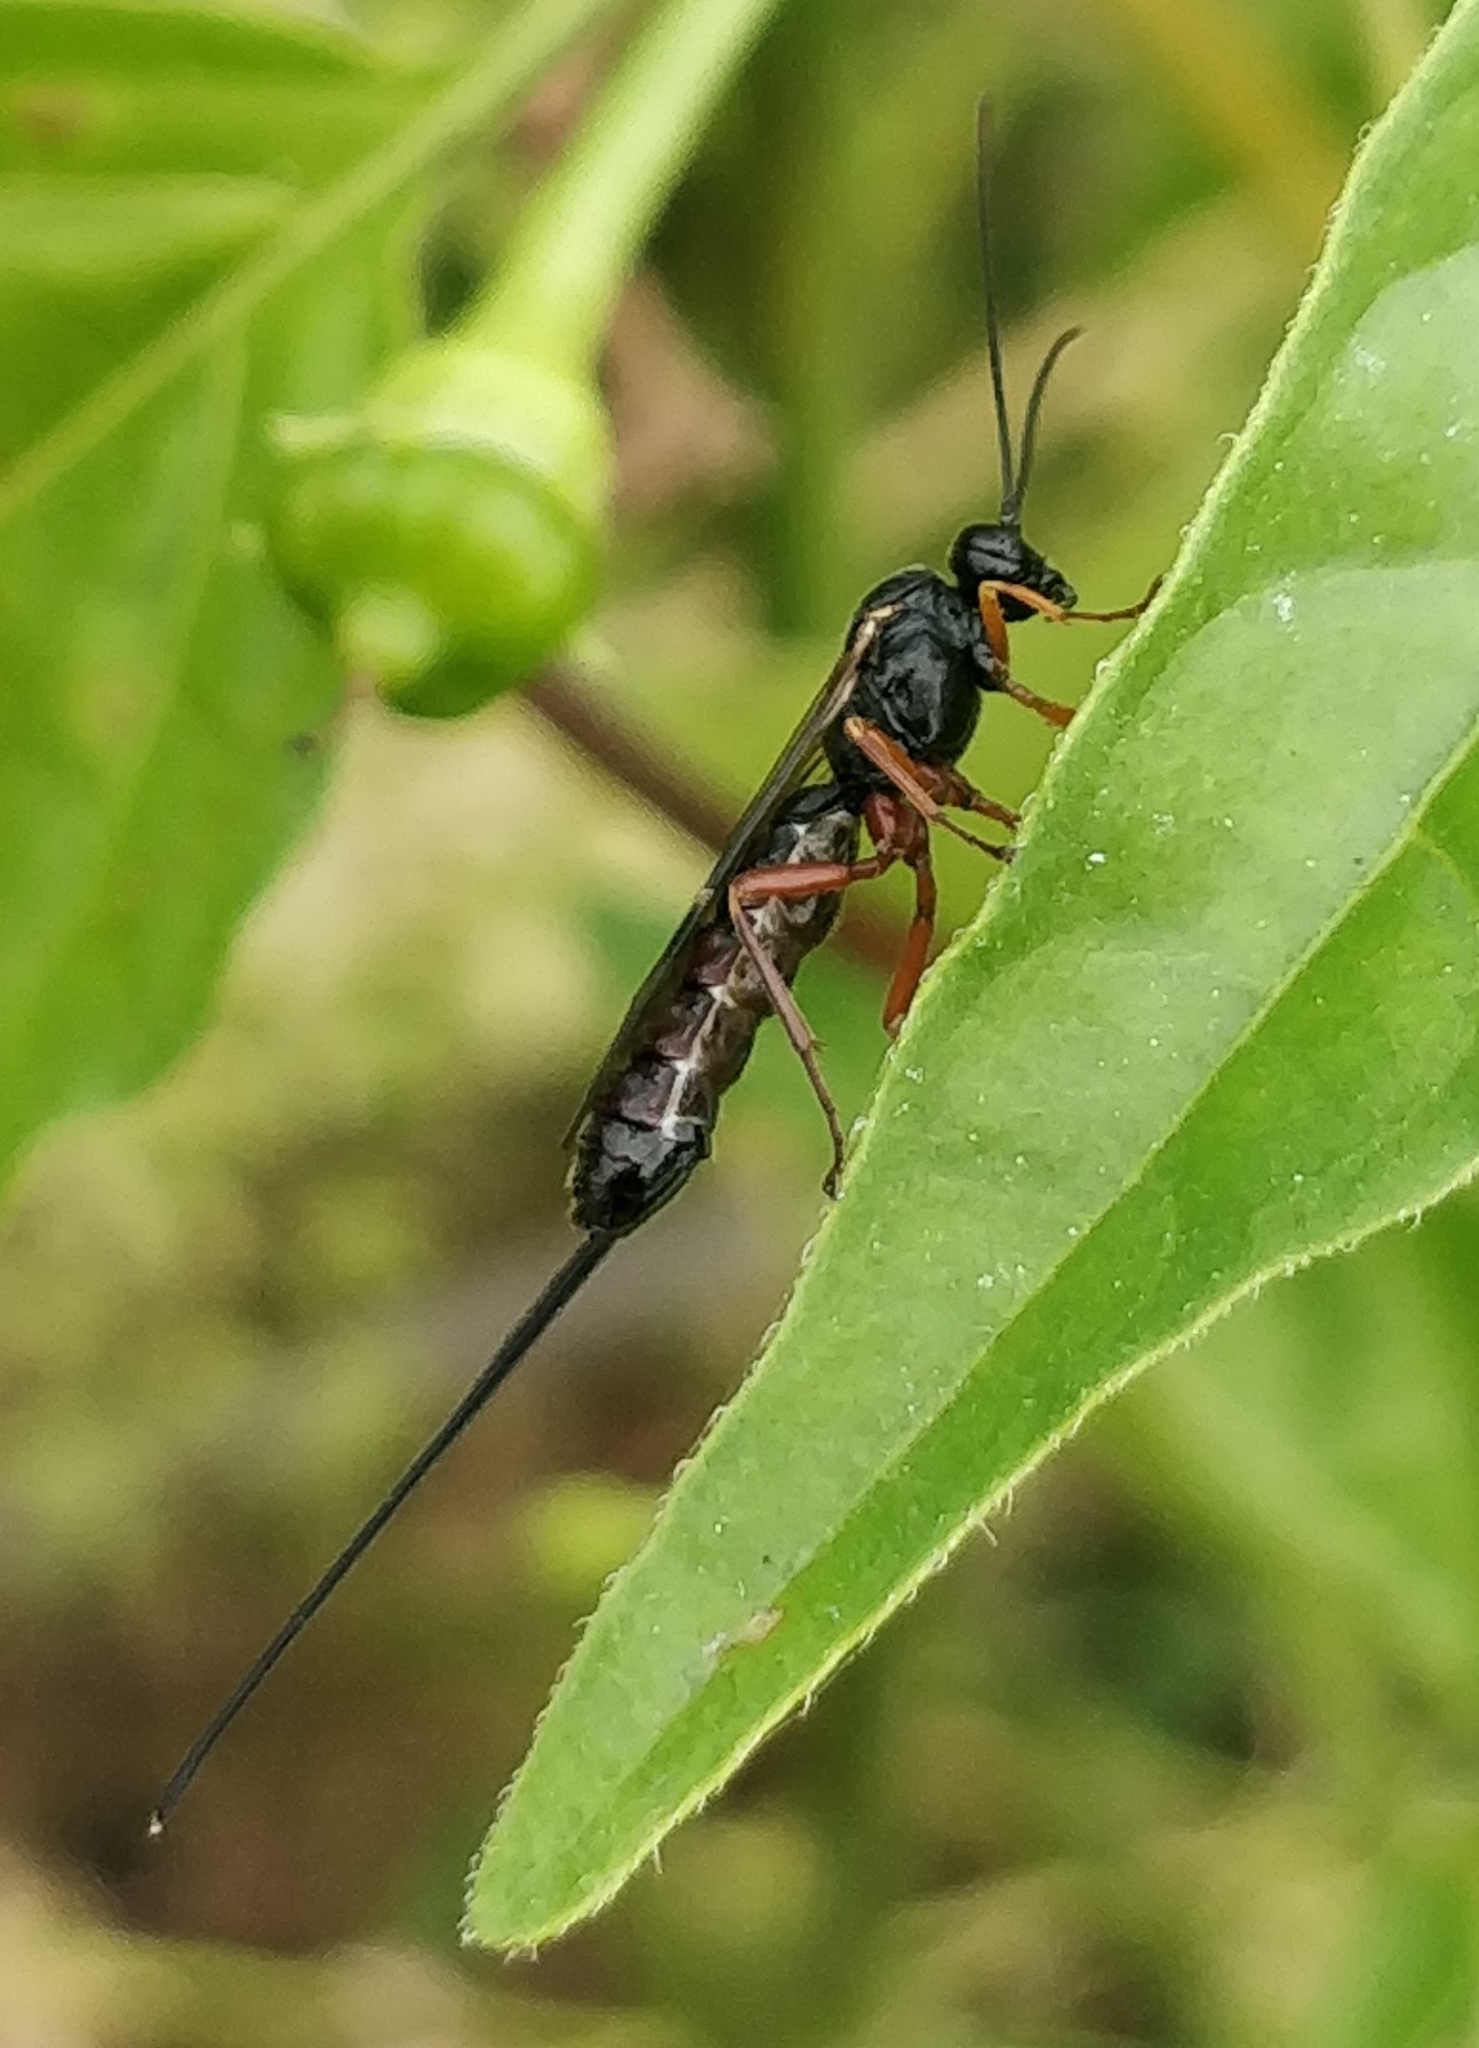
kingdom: Animalia
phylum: Arthropoda
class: Insecta
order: Hymenoptera
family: Ichneumonidae
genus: Exeristes
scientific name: Exeristes roborator
